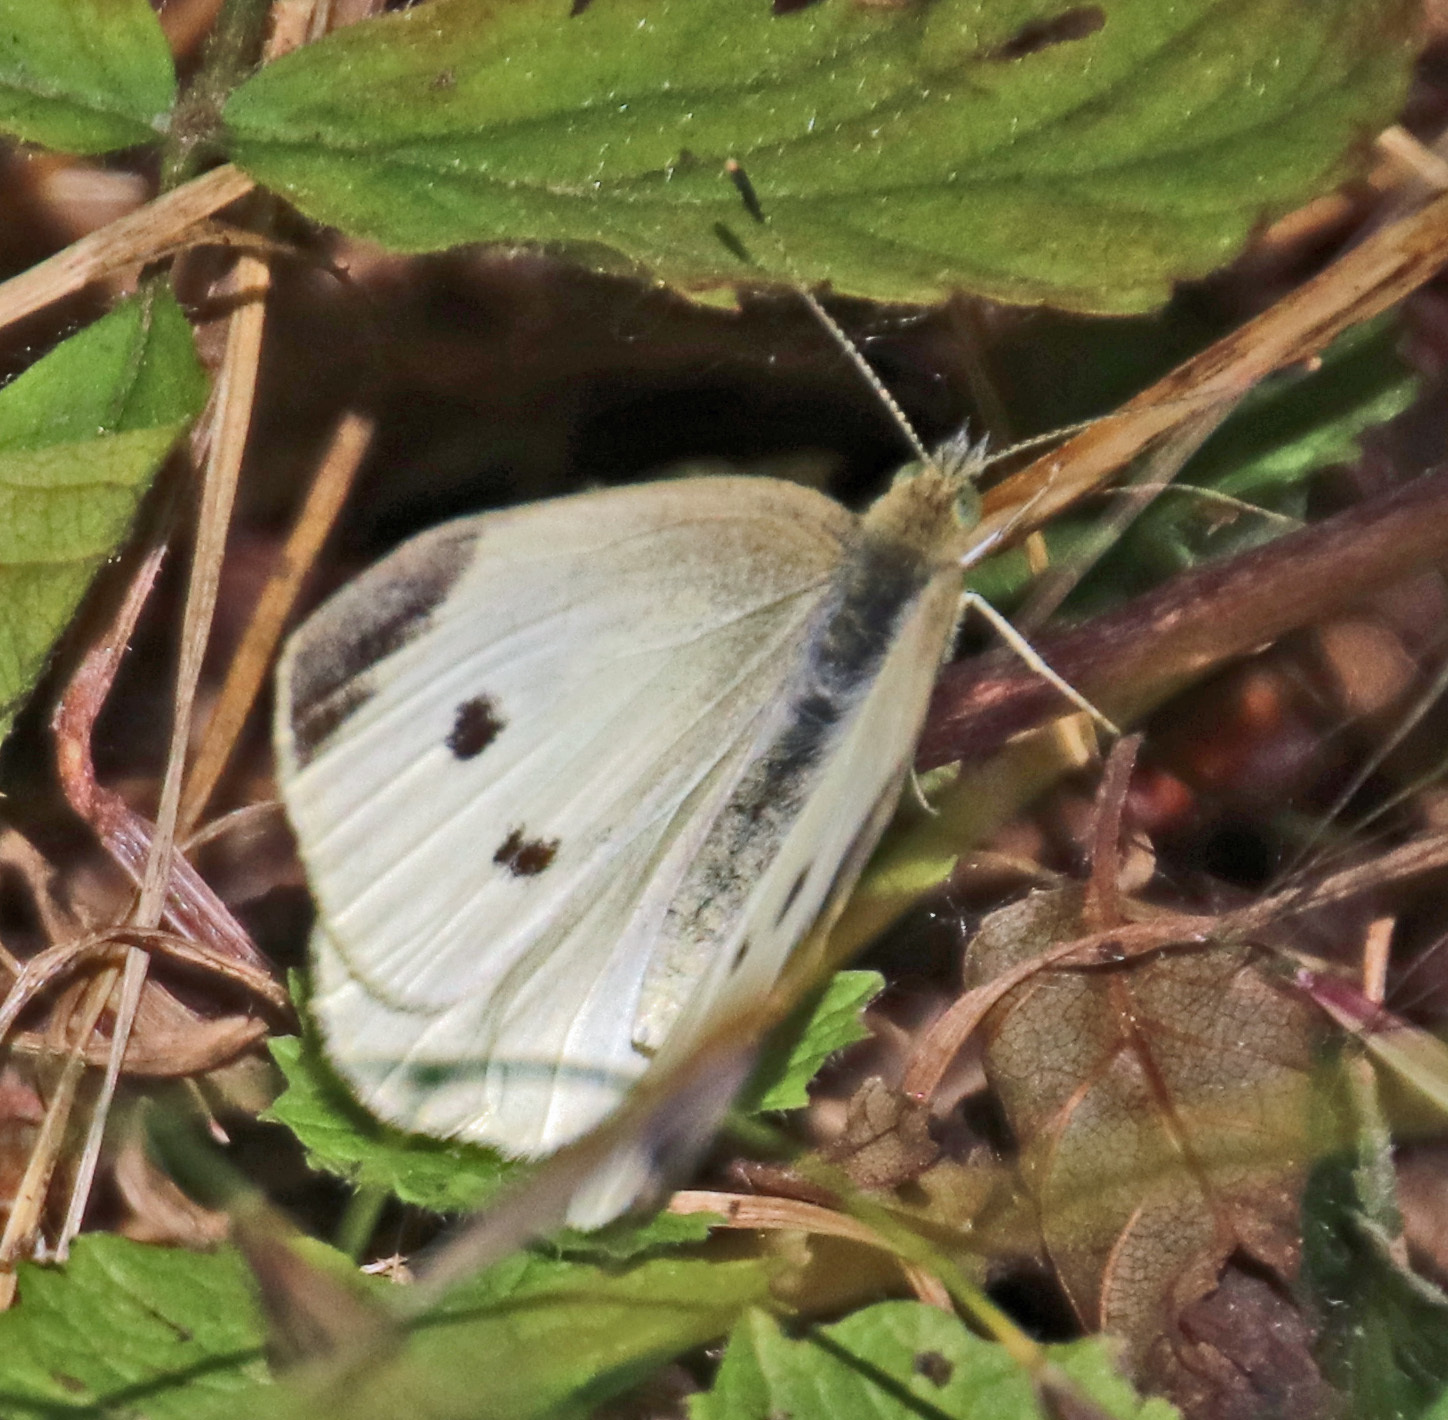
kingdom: Animalia
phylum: Arthropoda
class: Insecta
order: Lepidoptera
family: Pieridae
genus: Pieris
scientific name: Pieris rapae
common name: Small white
